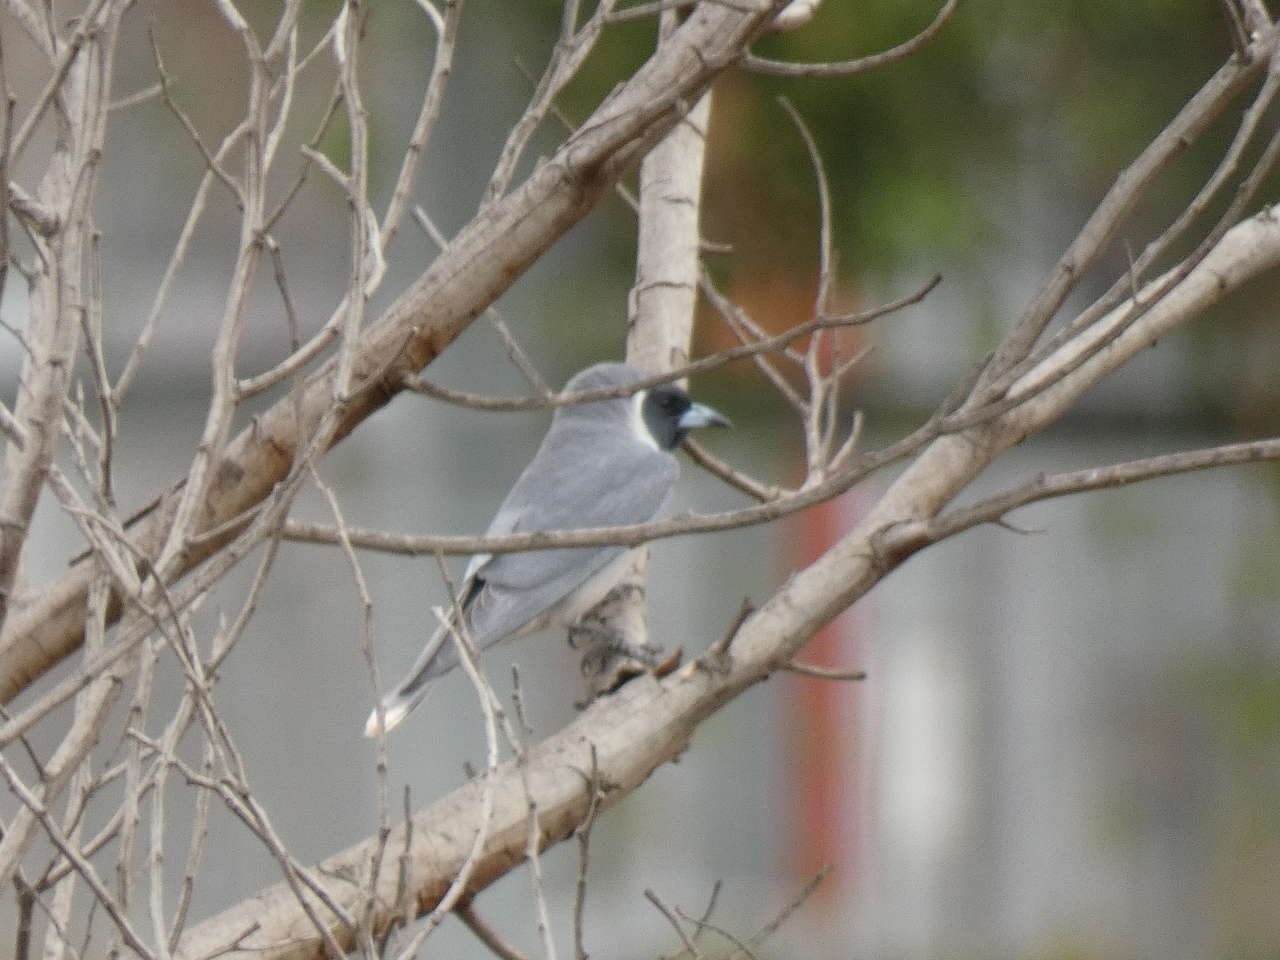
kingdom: Animalia
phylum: Chordata
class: Aves
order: Passeriformes
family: Artamidae
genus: Artamus
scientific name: Artamus personatus
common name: Masked woodswallow
